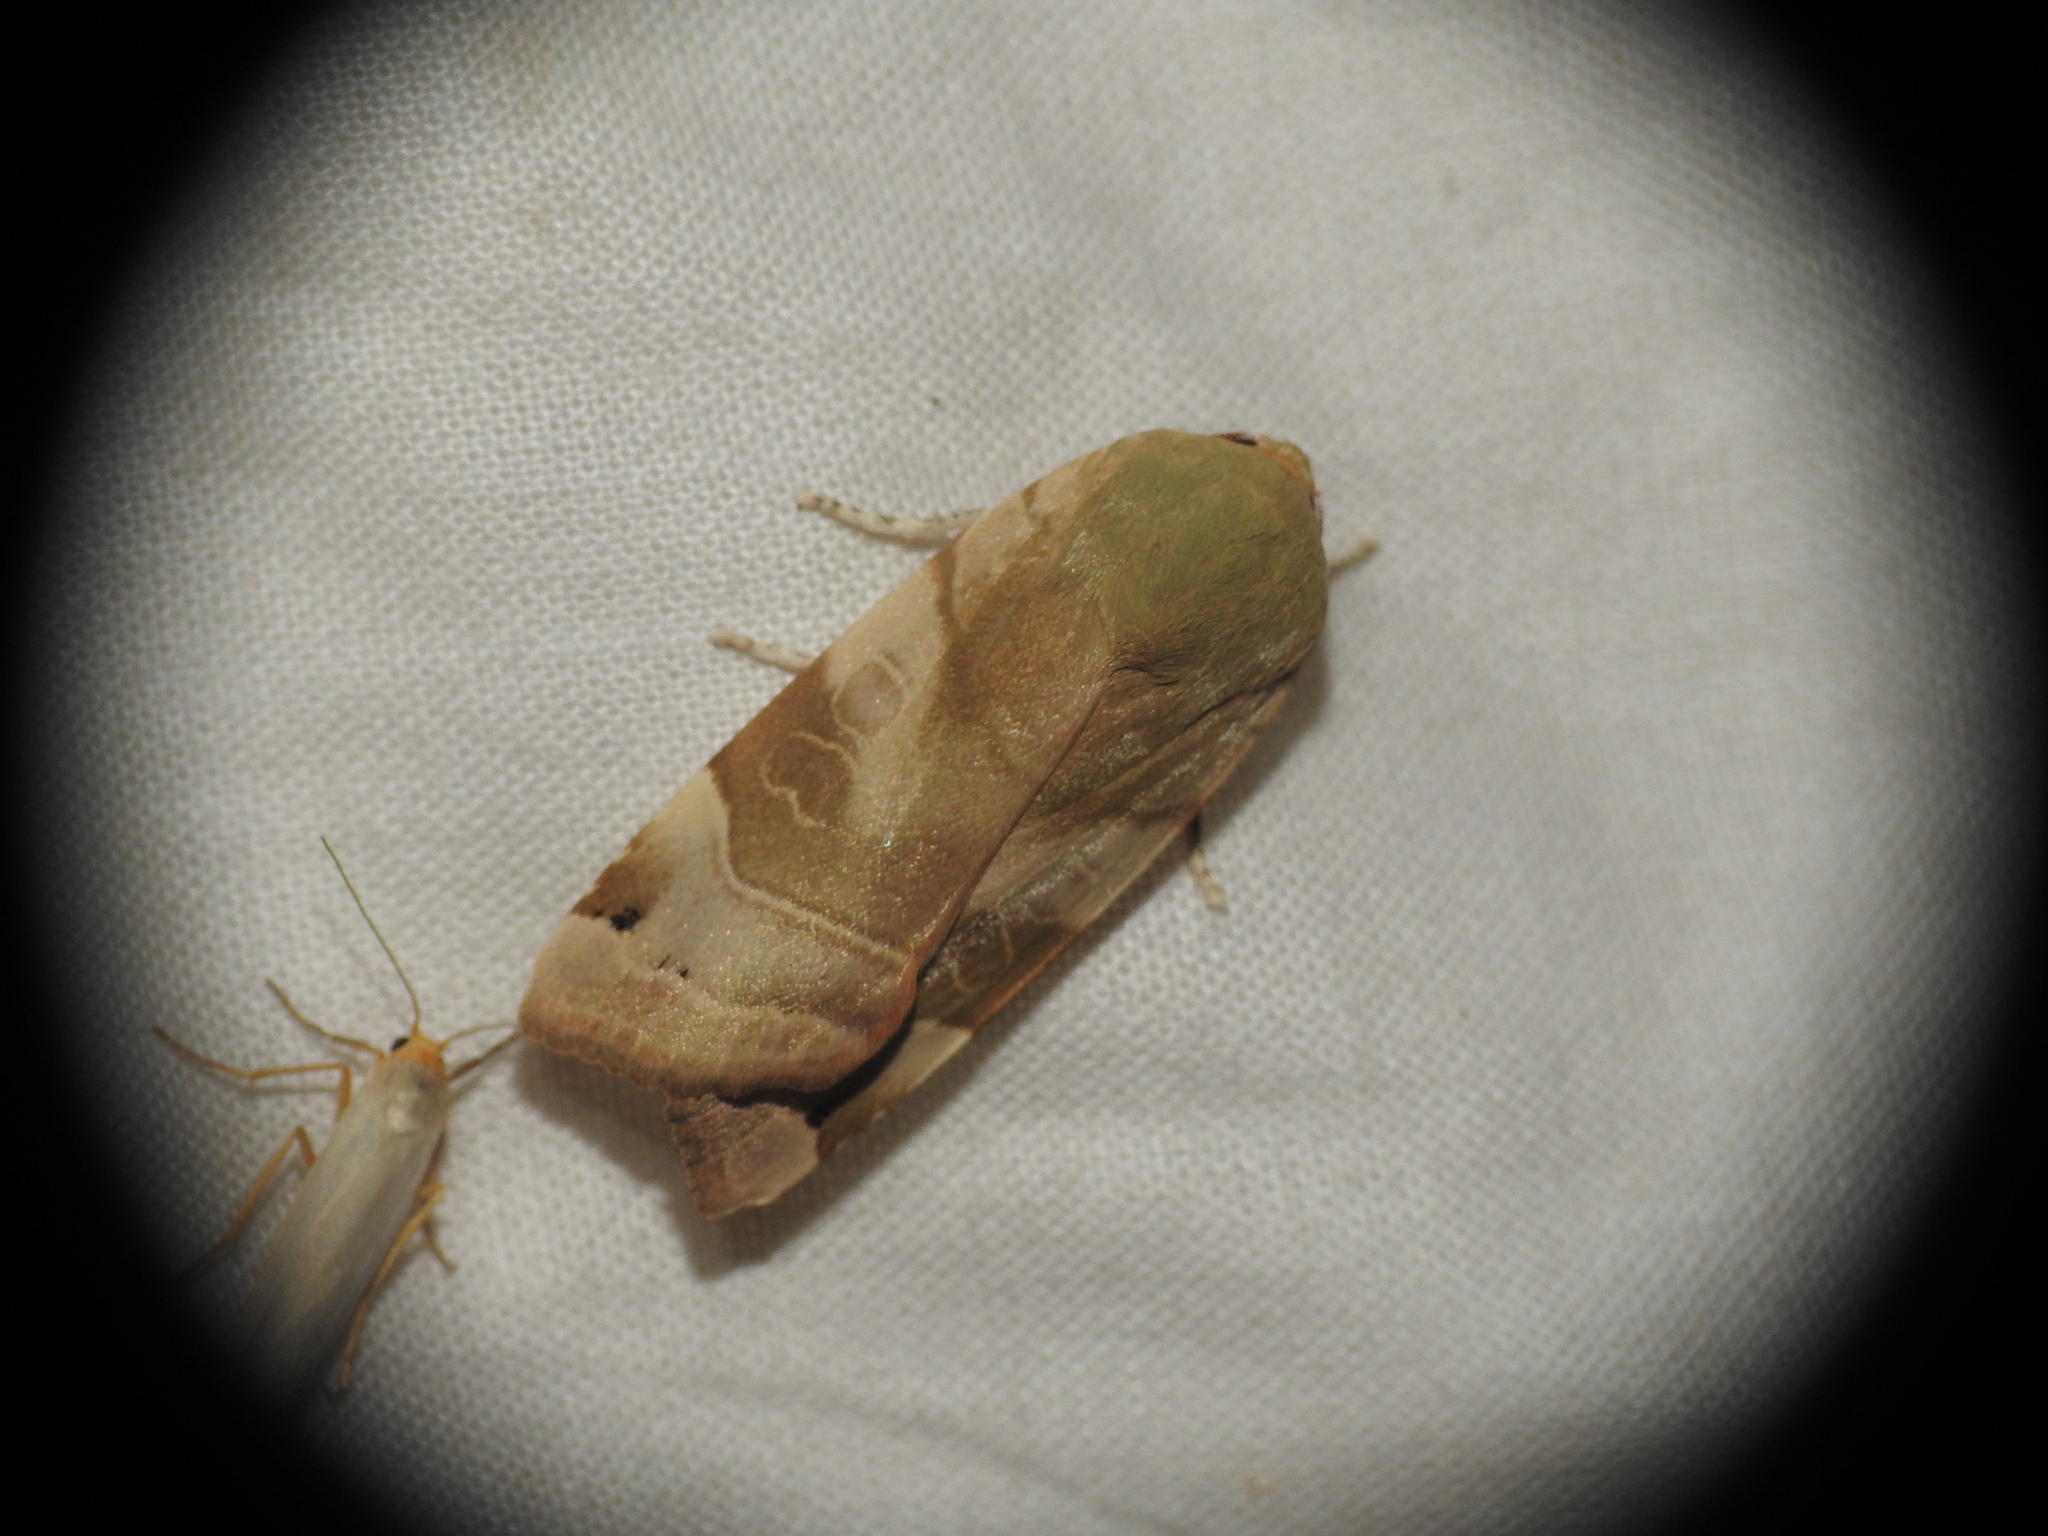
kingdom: Animalia
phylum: Arthropoda
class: Insecta
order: Lepidoptera
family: Noctuidae
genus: Noctua
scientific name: Noctua fimbriata
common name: Broad-bordered yellow underwing
